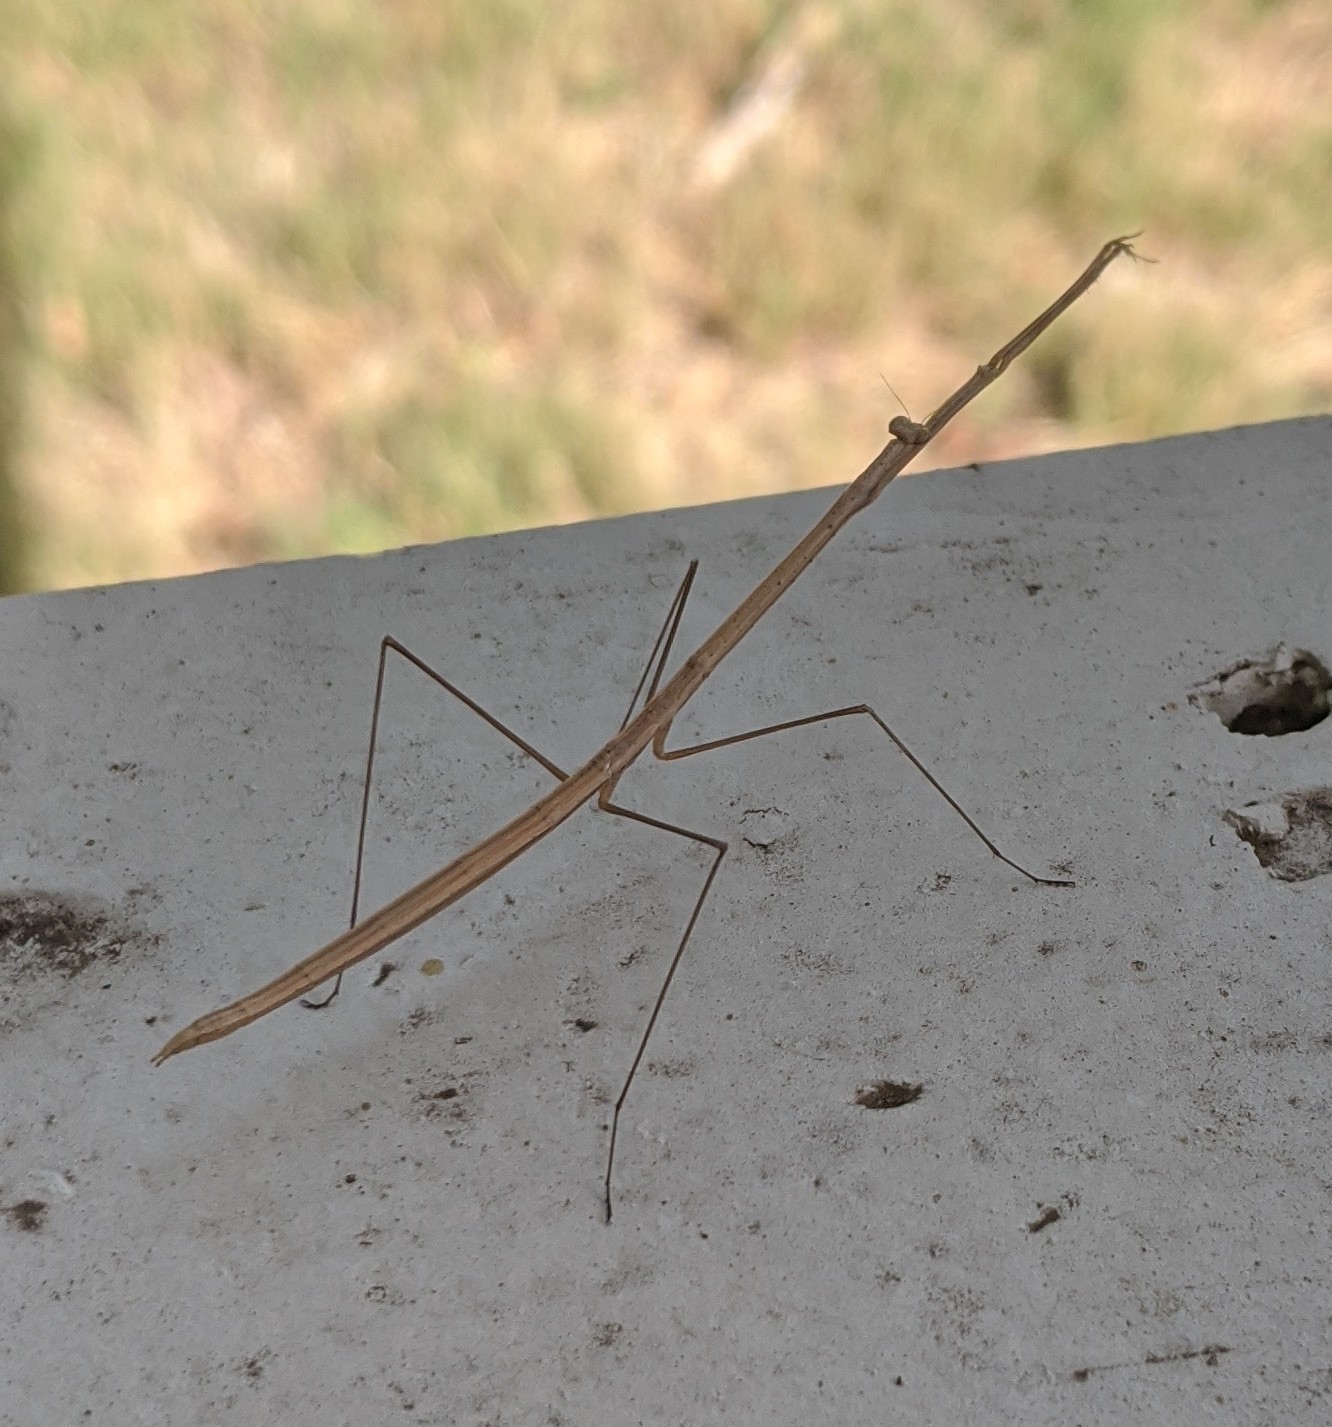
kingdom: Animalia
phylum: Arthropoda
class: Insecta
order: Mantodea
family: Thespidae
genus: Thesprotia
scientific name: Thesprotia graminis
